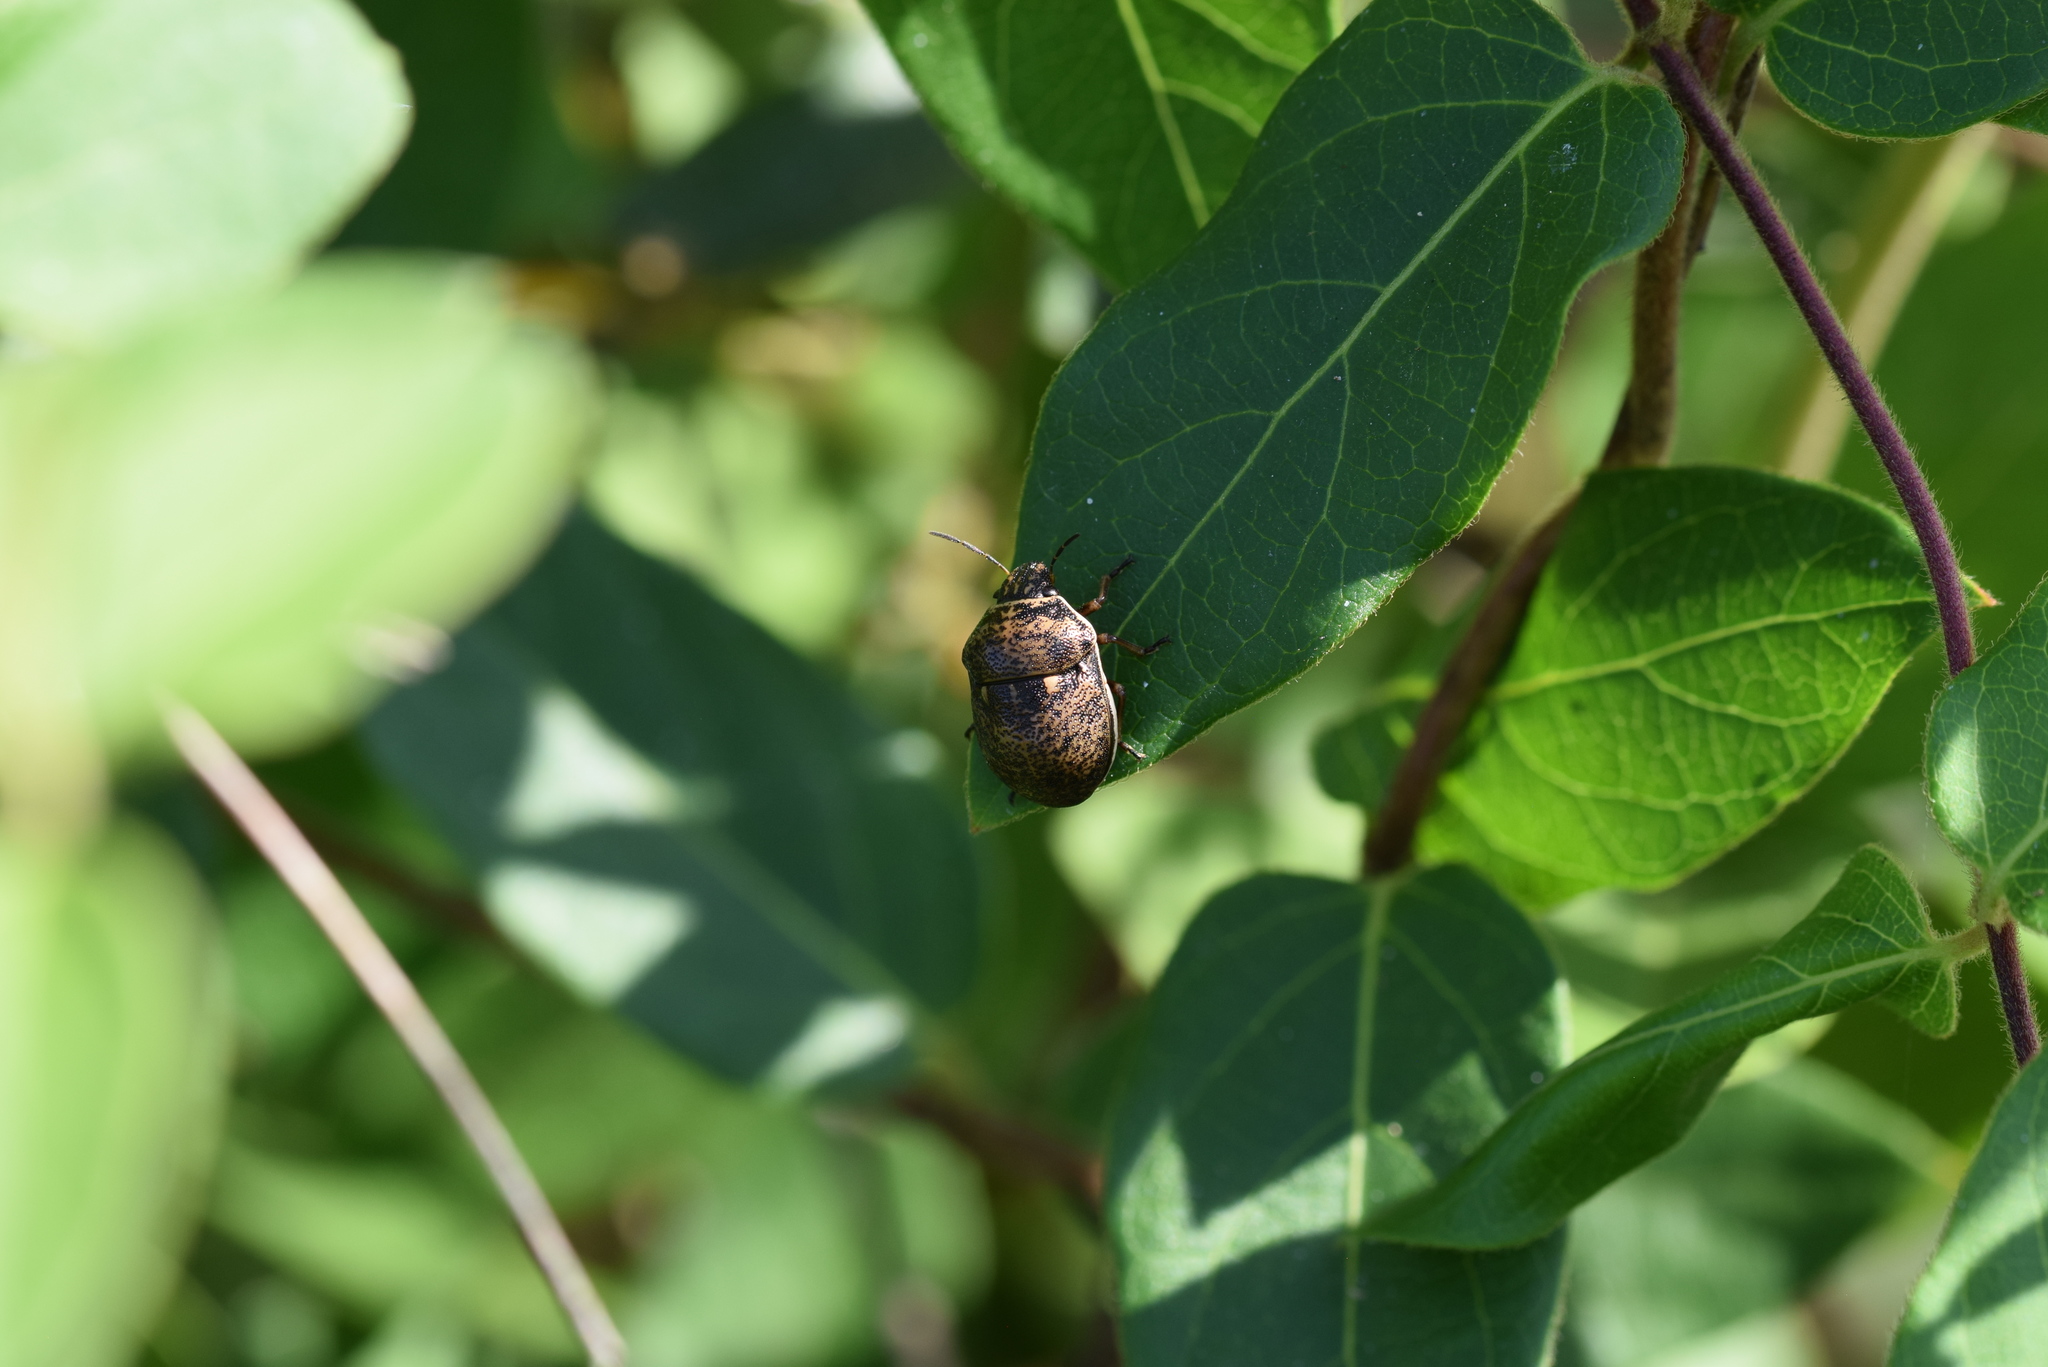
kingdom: Animalia
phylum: Arthropoda
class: Insecta
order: Hemiptera
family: Scutelleridae
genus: Orsilochides
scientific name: Orsilochides guttata
